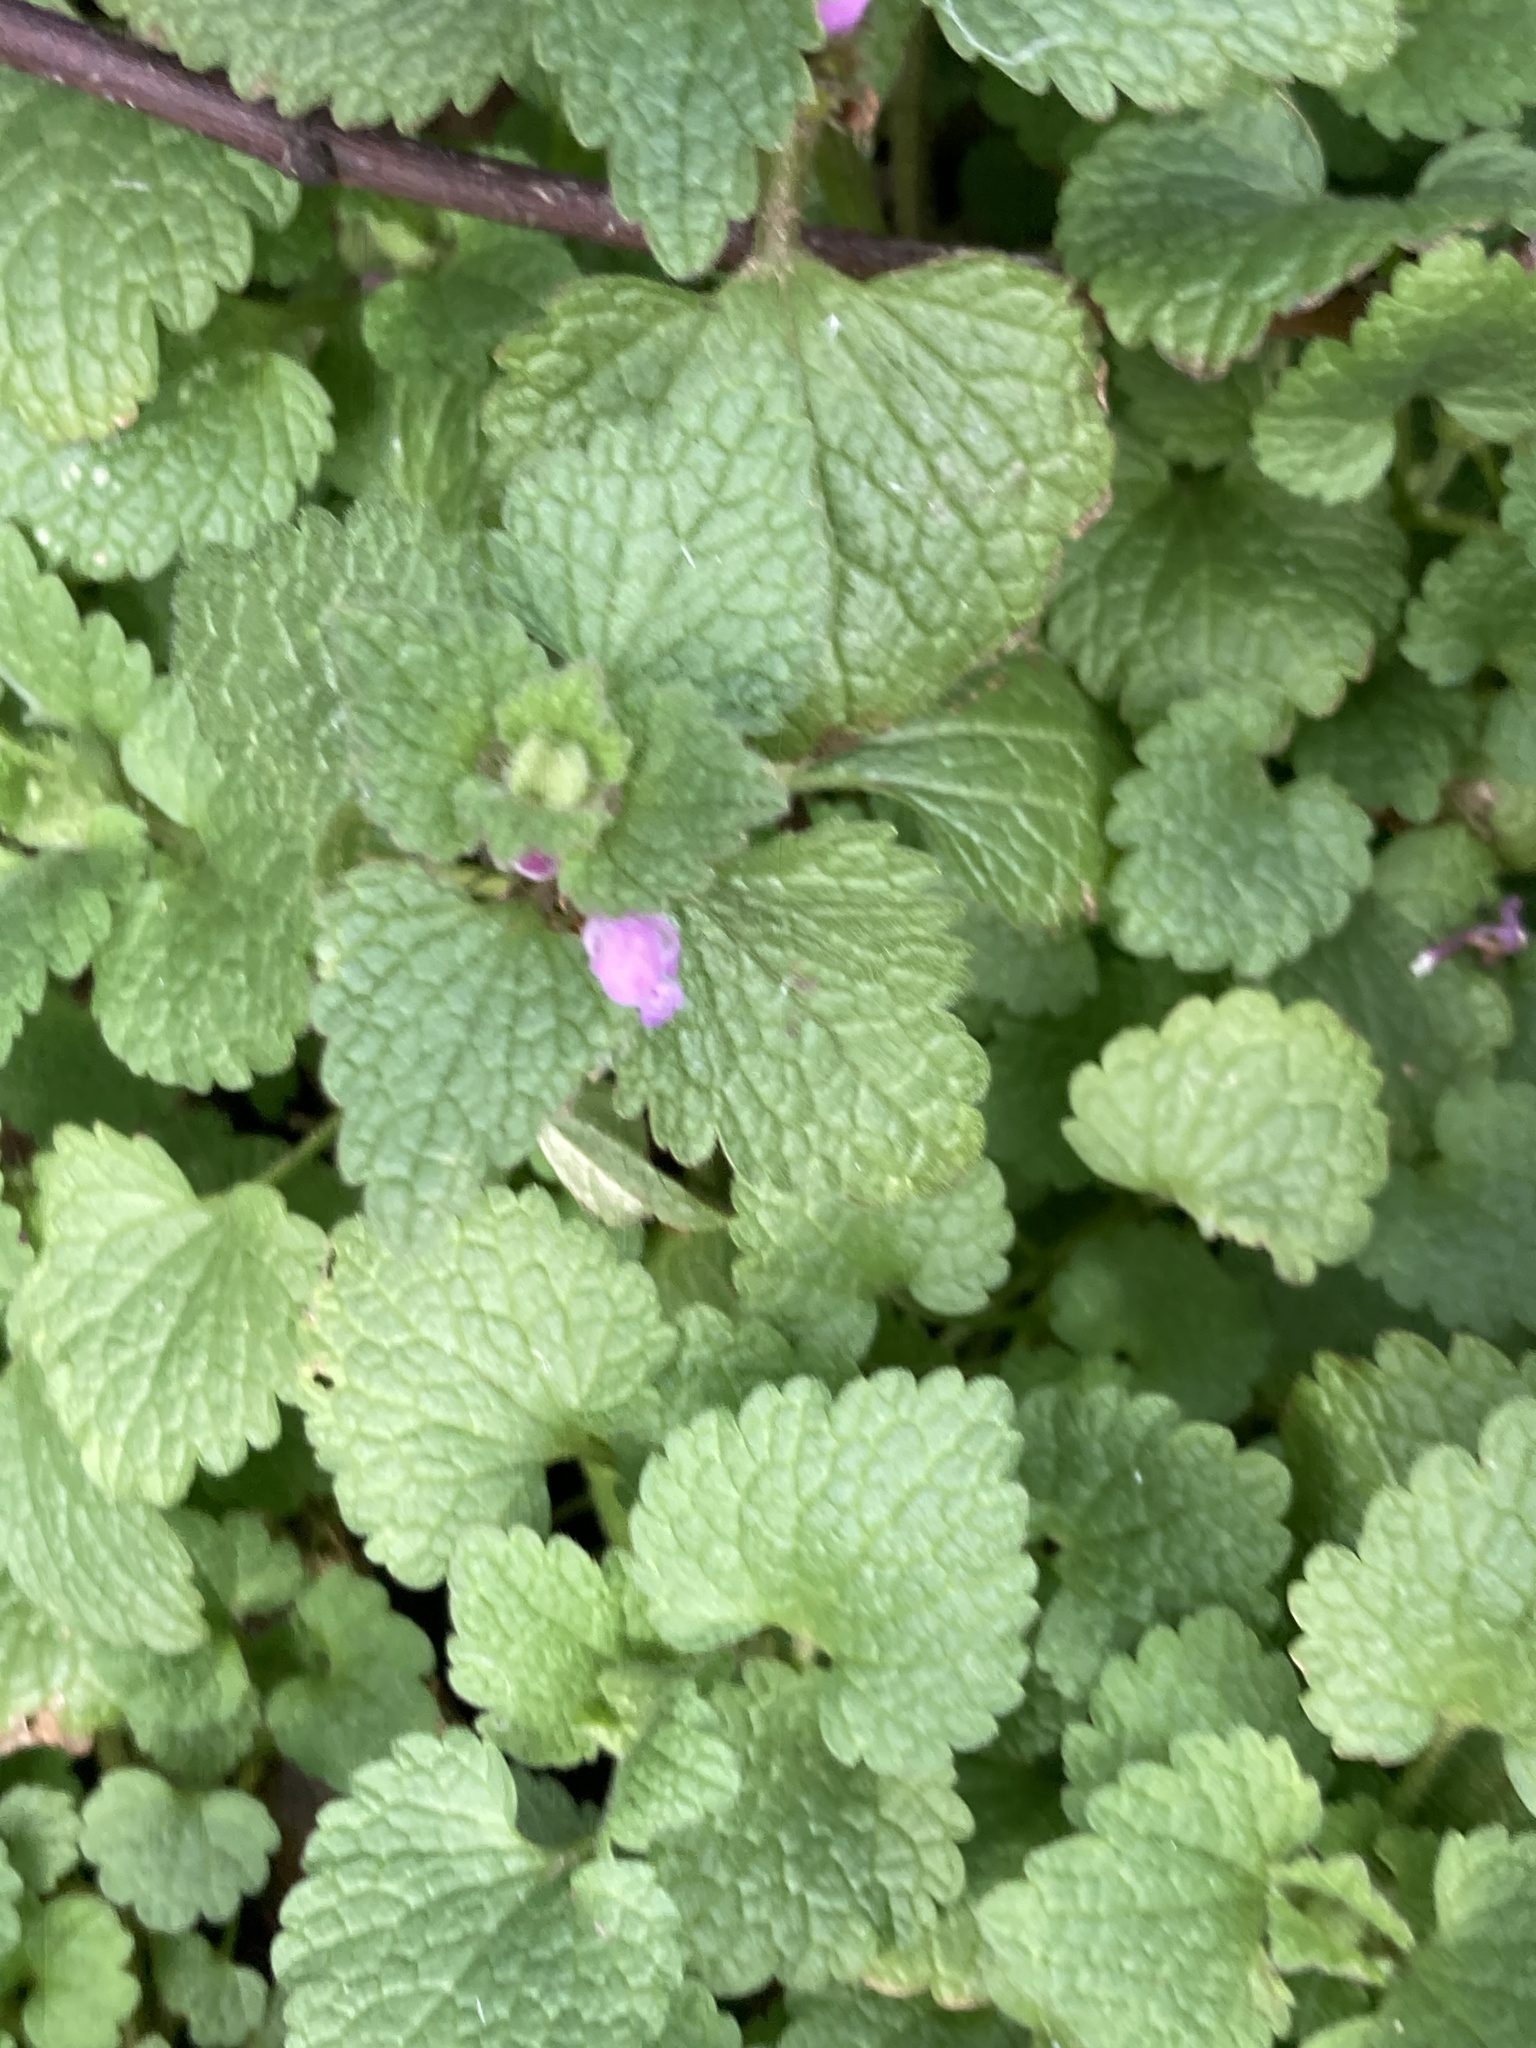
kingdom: Plantae
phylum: Tracheophyta
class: Magnoliopsida
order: Lamiales
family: Lamiaceae
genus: Lamium
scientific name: Lamium purpureum
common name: Red dead-nettle
